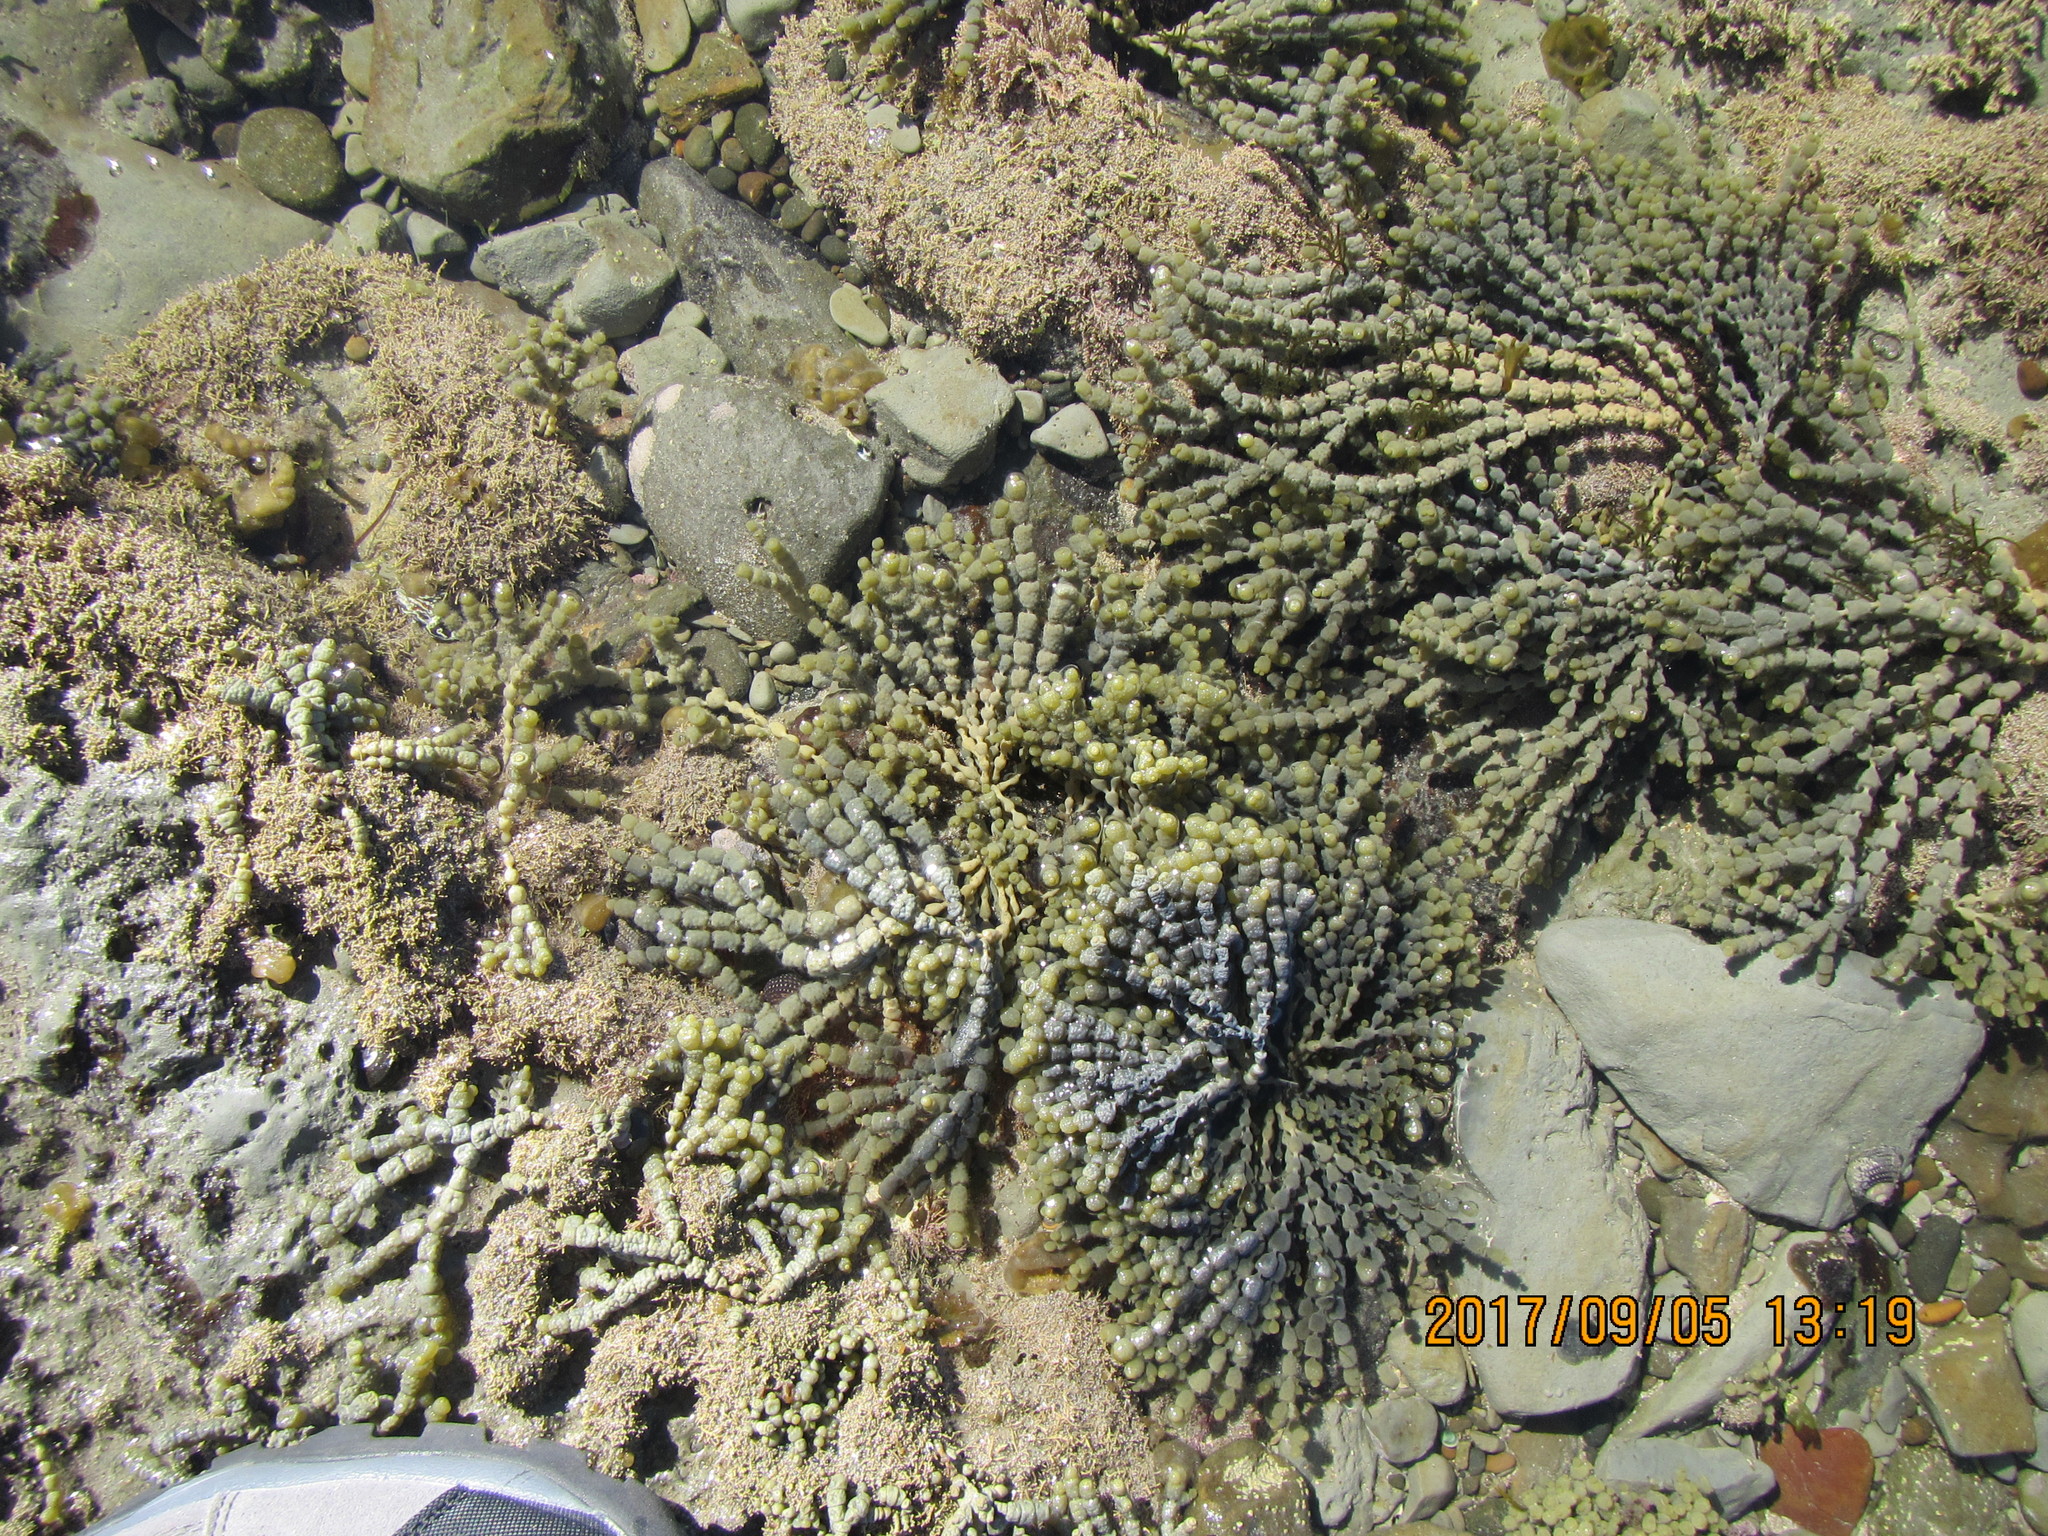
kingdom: Chromista
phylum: Ochrophyta
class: Phaeophyceae
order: Fucales
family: Hormosiraceae
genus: Hormosira
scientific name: Hormosira banksii
